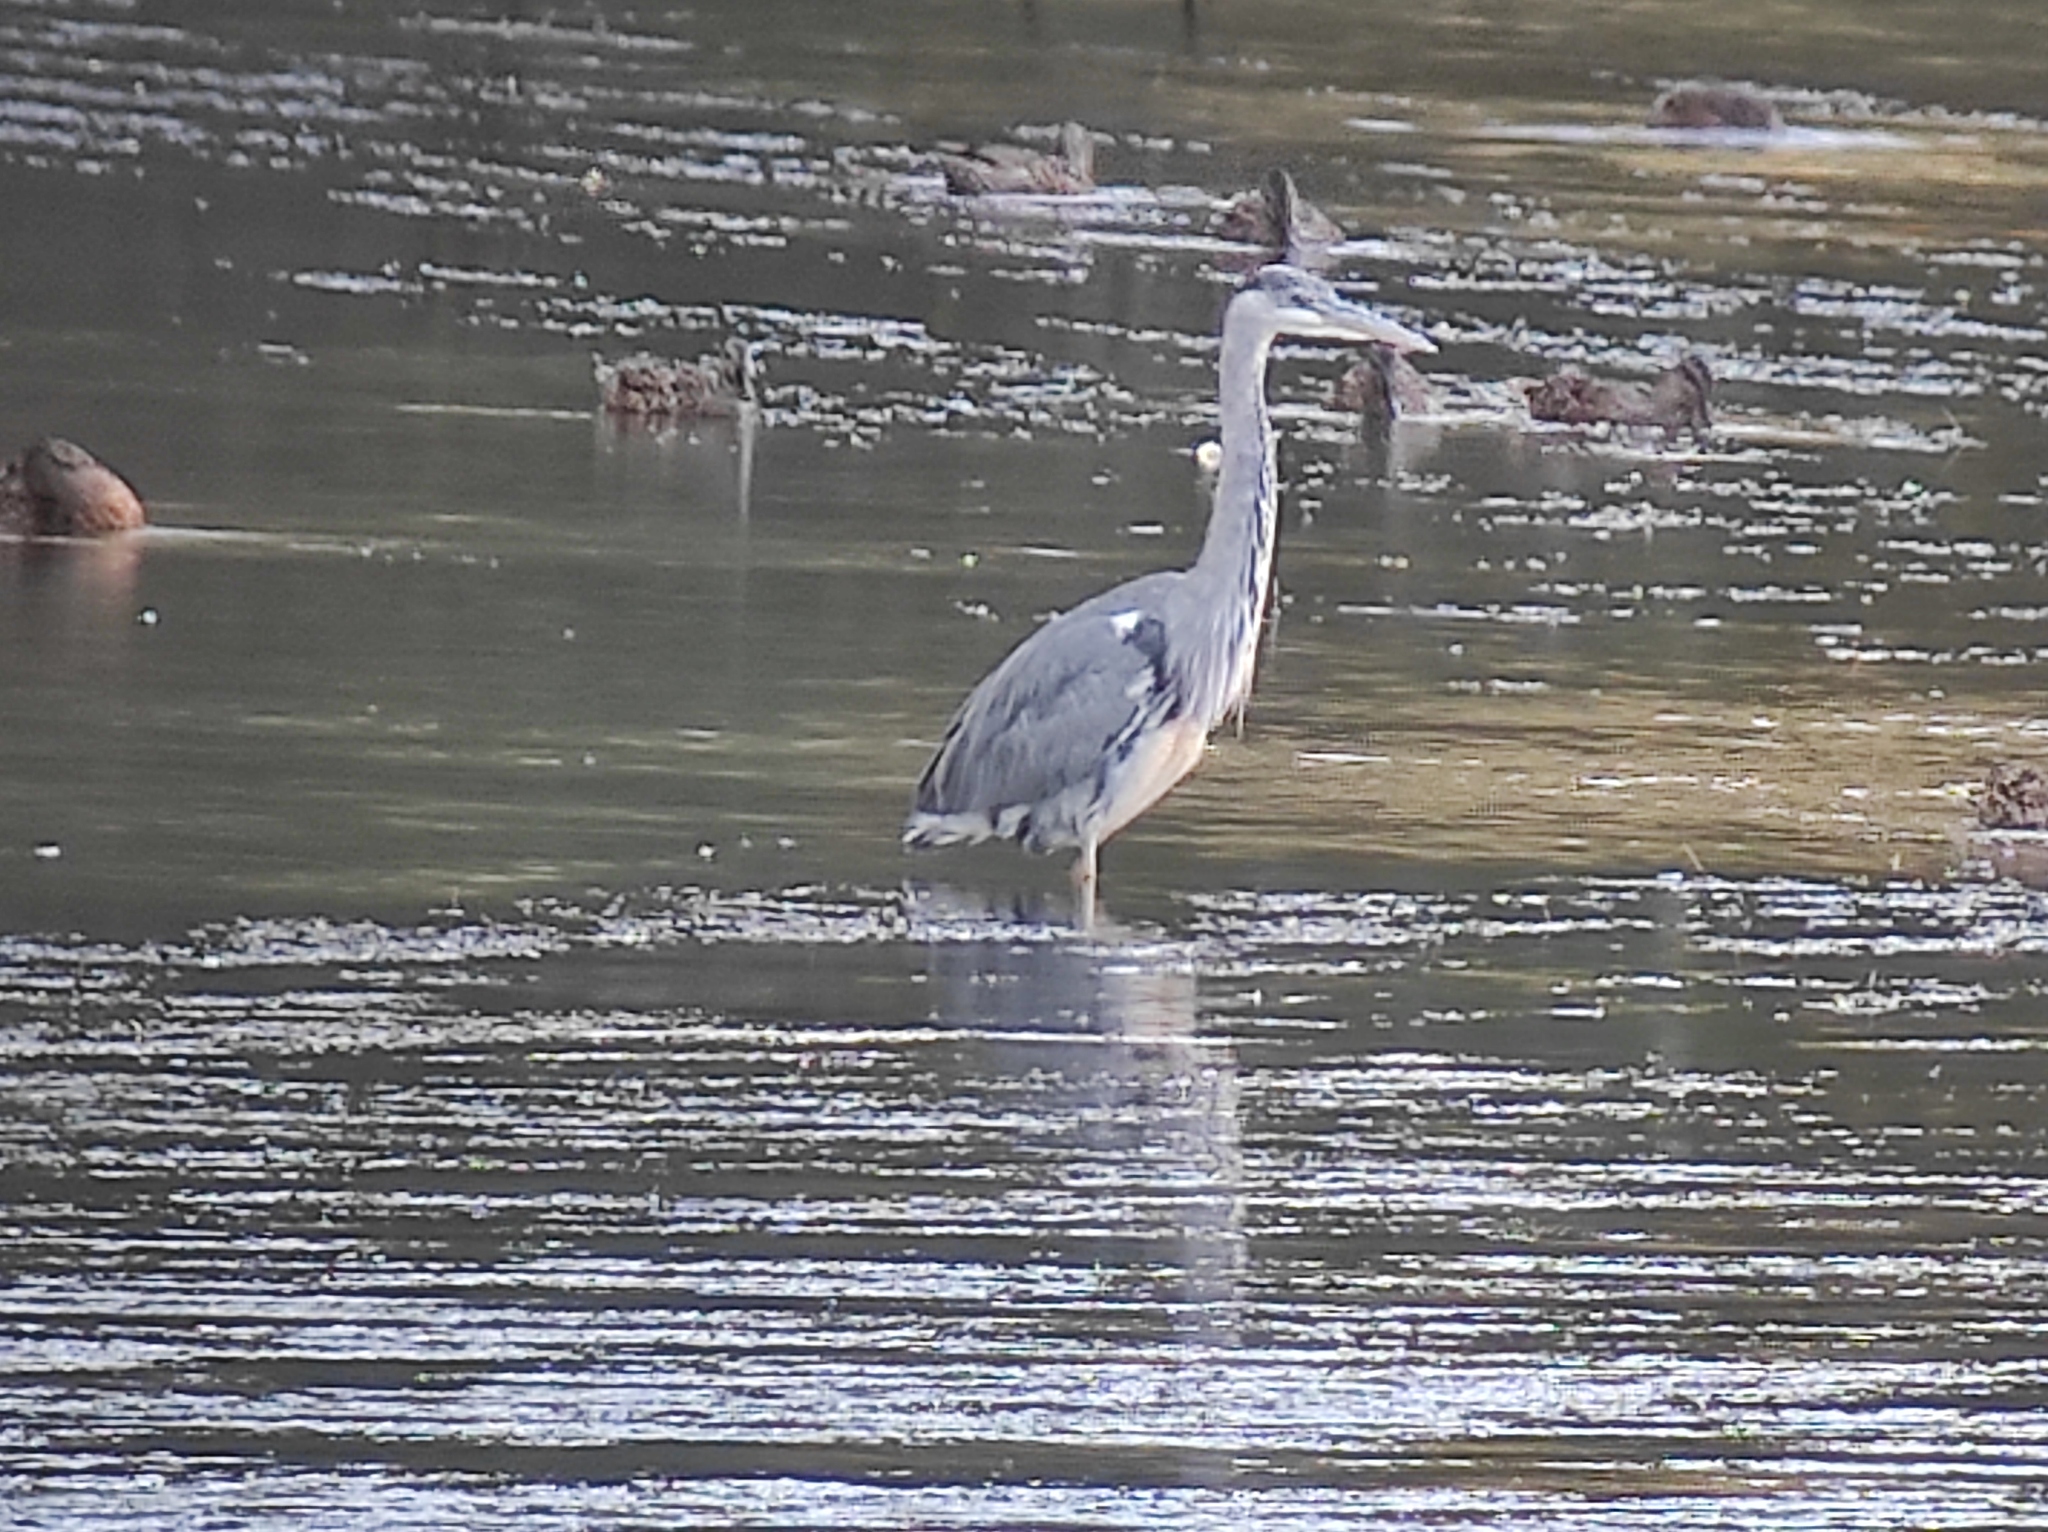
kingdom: Animalia
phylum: Chordata
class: Aves
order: Pelecaniformes
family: Ardeidae
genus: Ardea
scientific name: Ardea cinerea
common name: Grey heron
